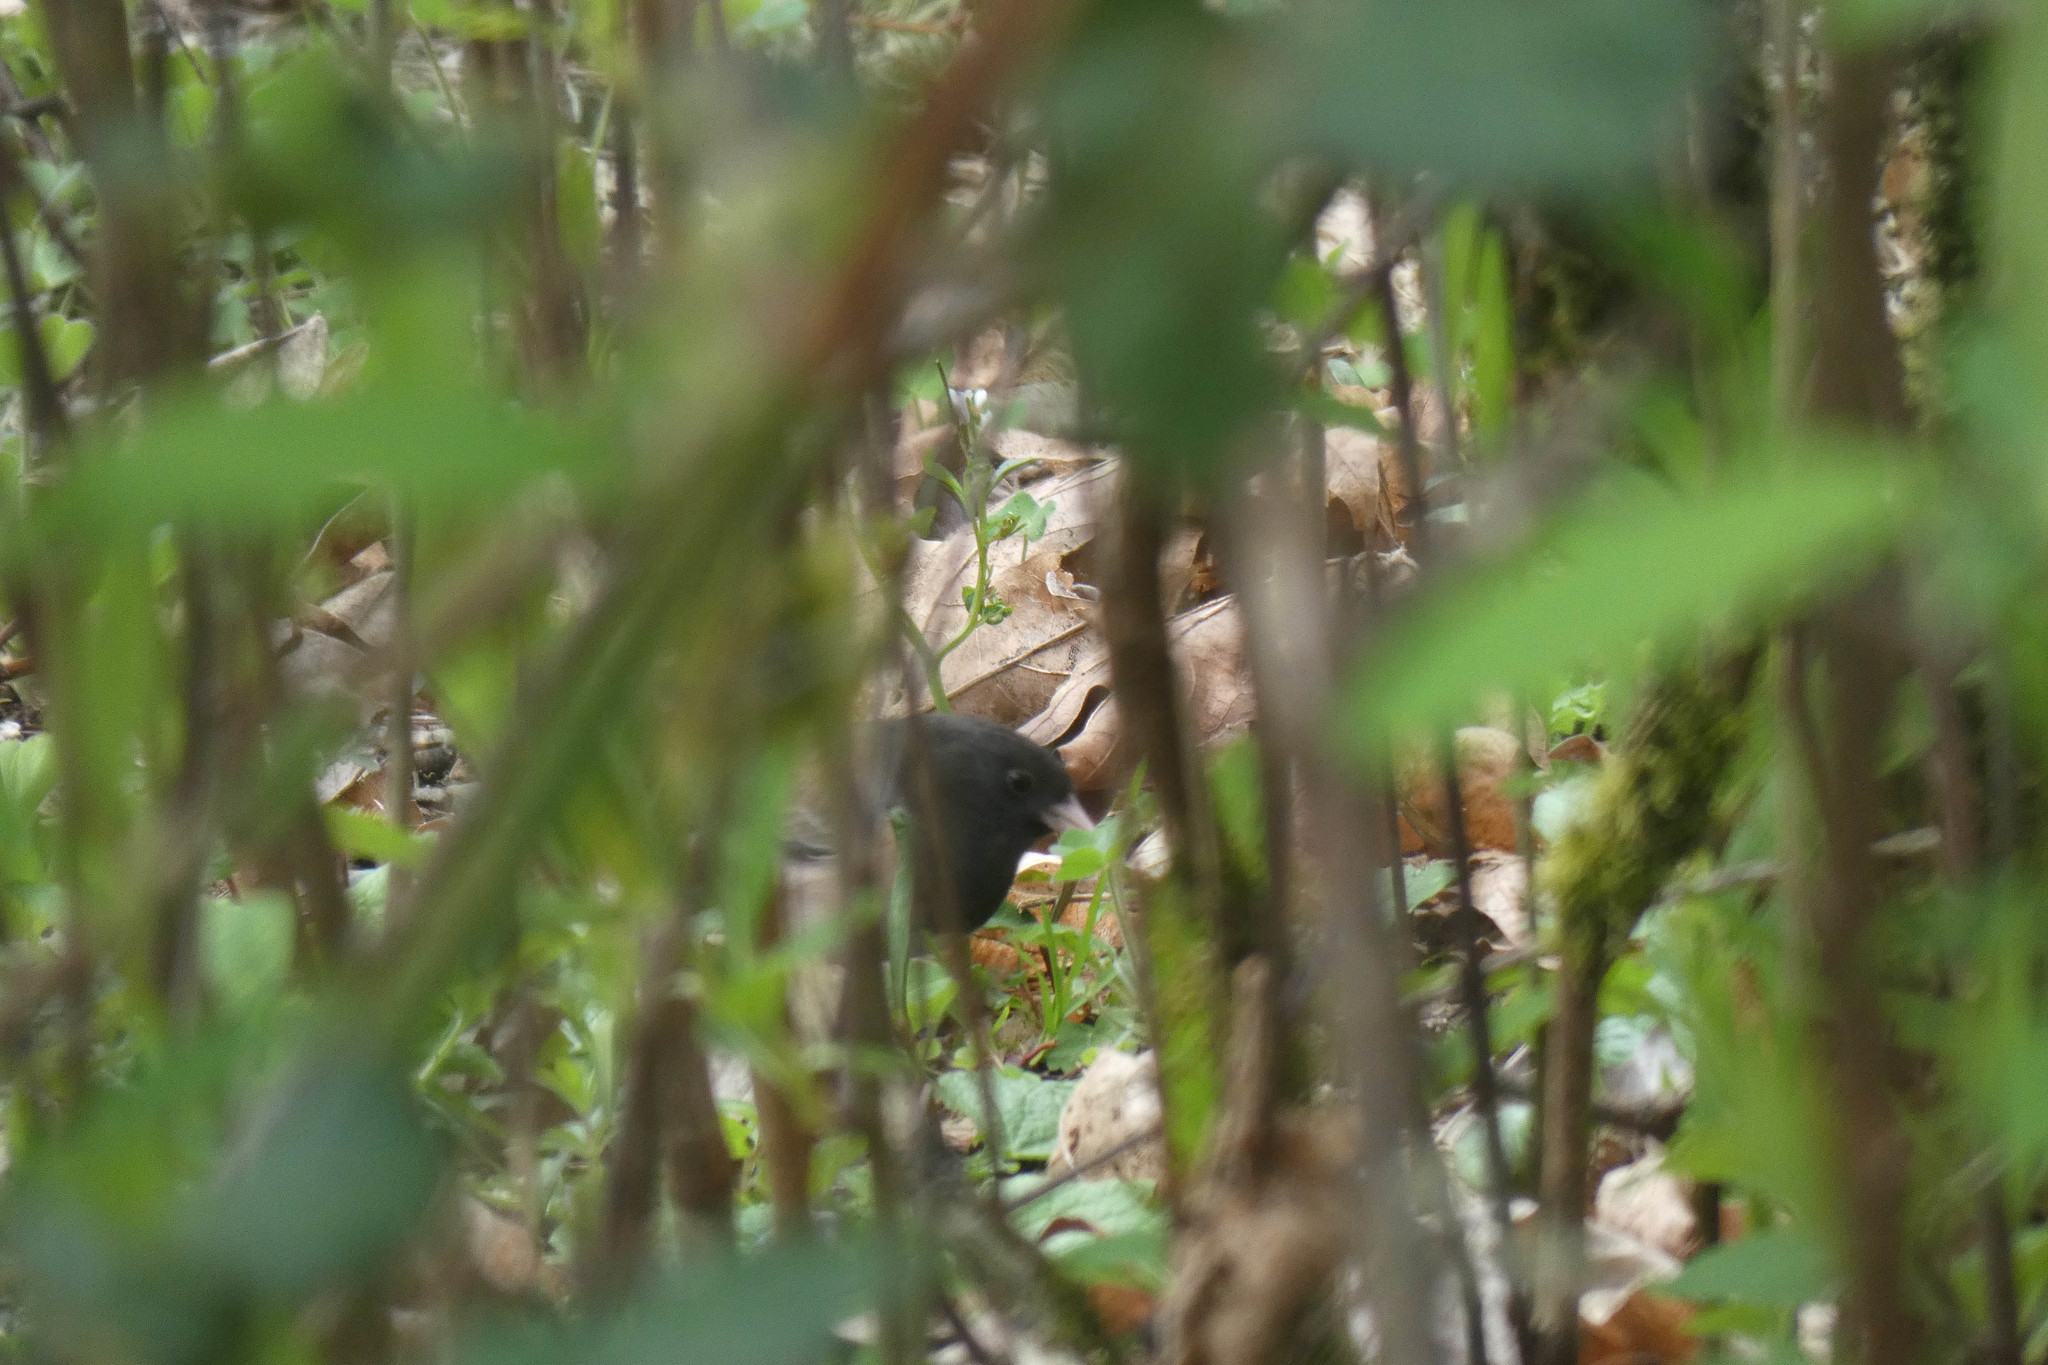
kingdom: Animalia
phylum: Chordata
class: Aves
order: Passeriformes
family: Passerellidae
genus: Junco
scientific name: Junco hyemalis
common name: Dark-eyed junco
